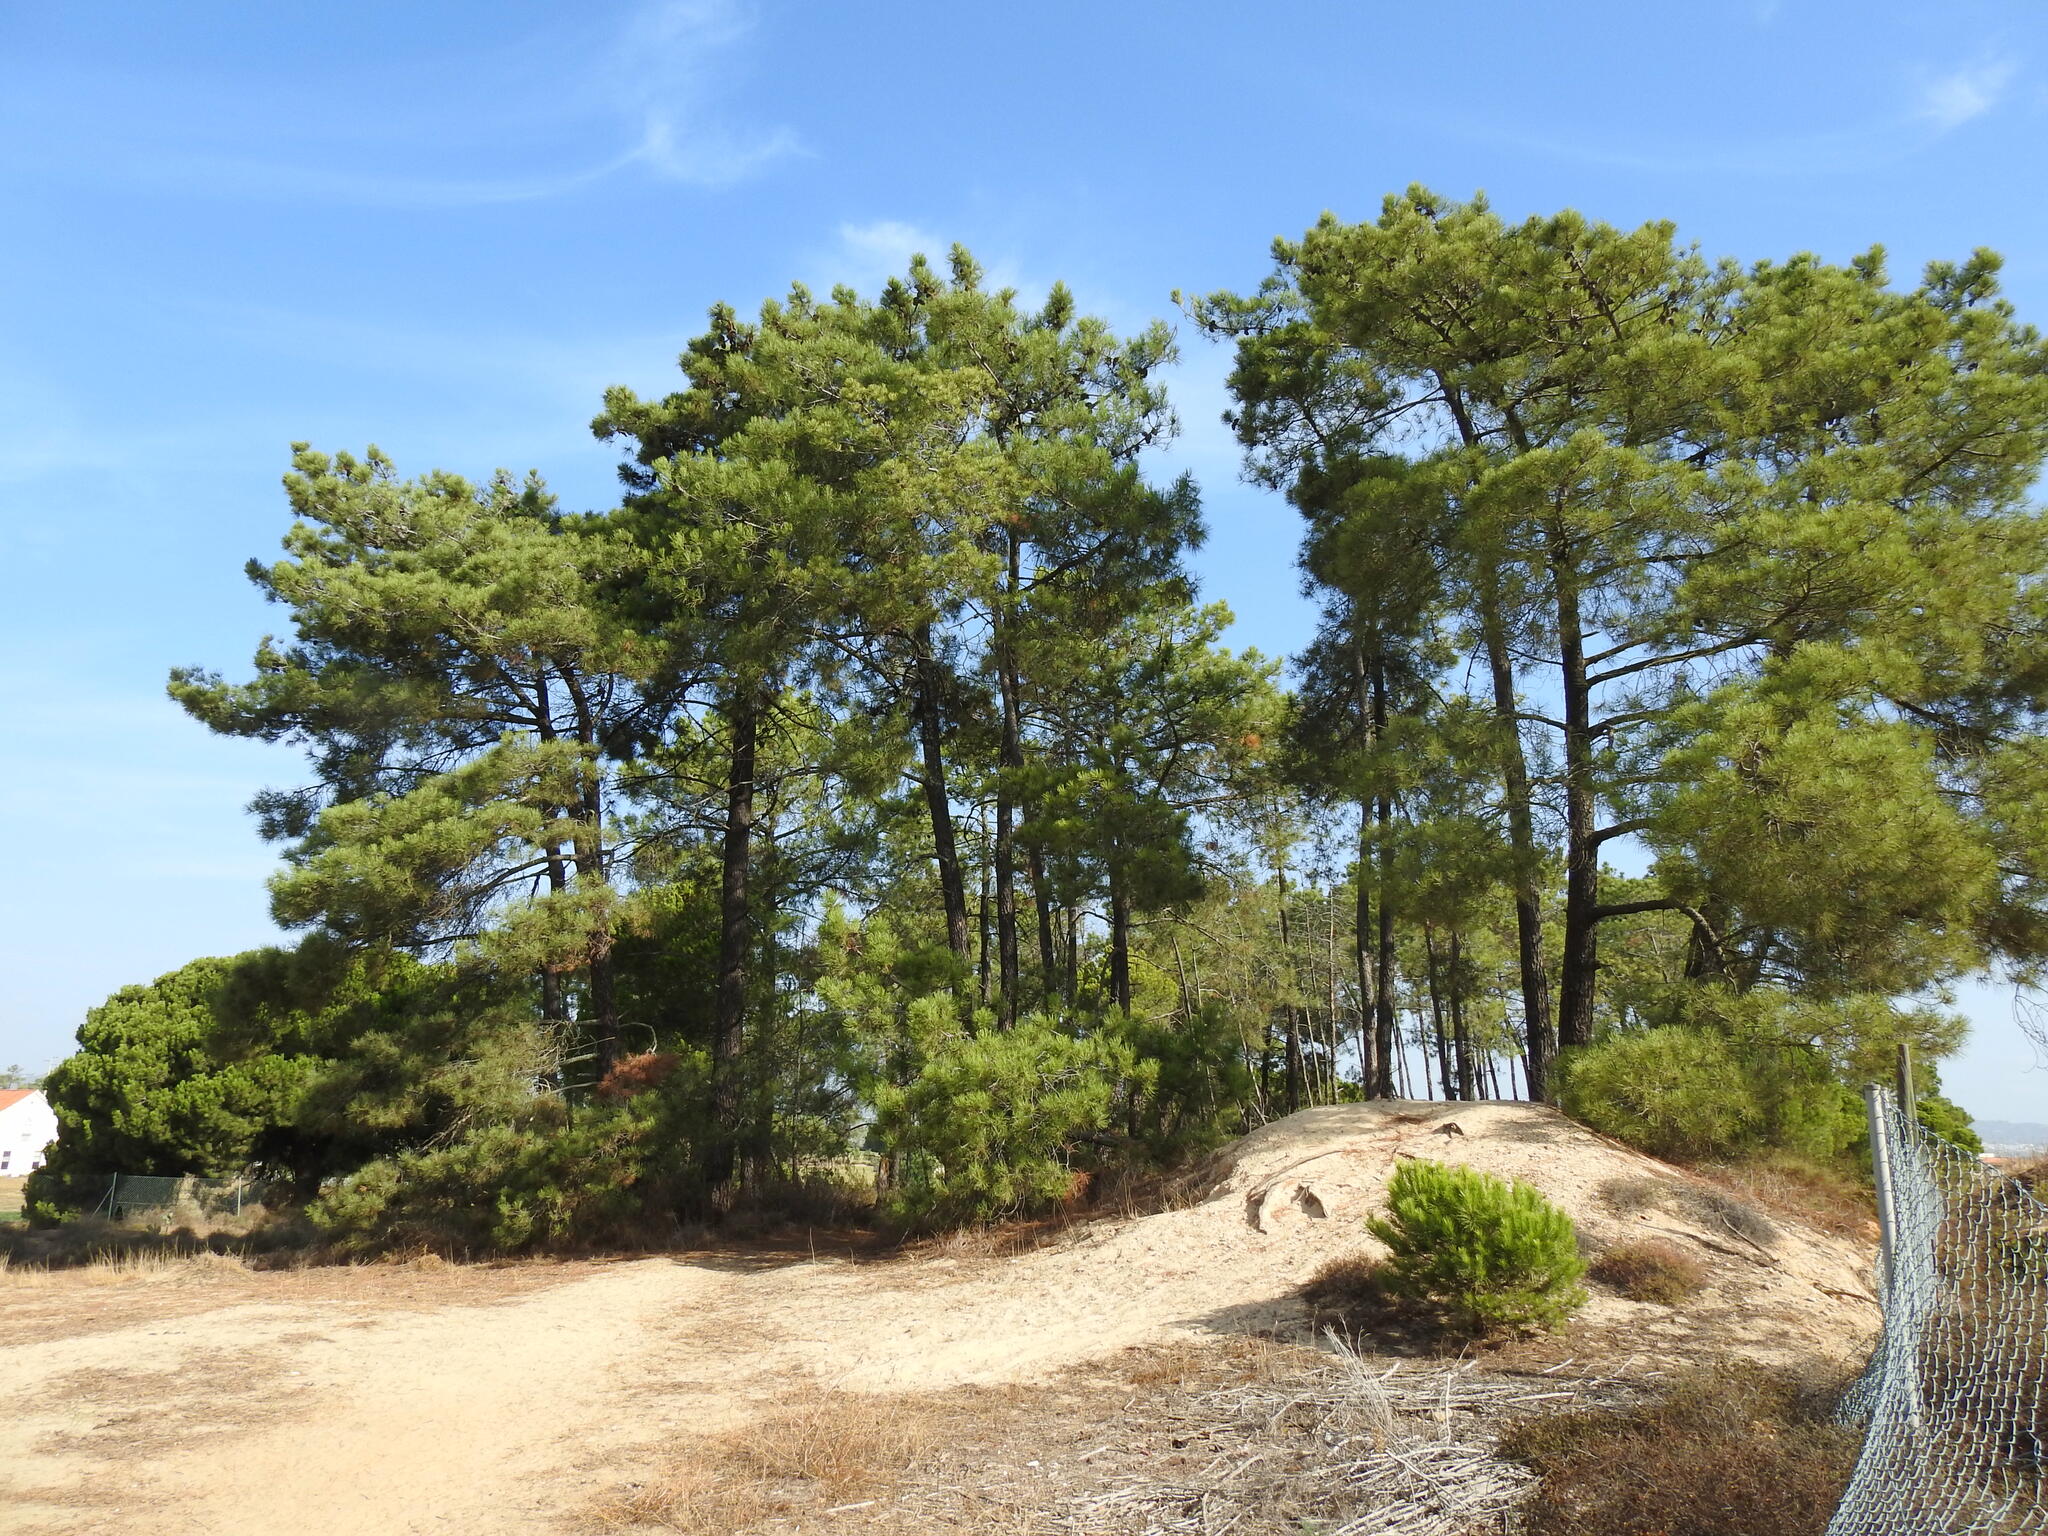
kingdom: Plantae
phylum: Tracheophyta
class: Pinopsida
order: Pinales
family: Pinaceae
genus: Pinus
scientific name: Pinus pinaster
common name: Maritime pine
